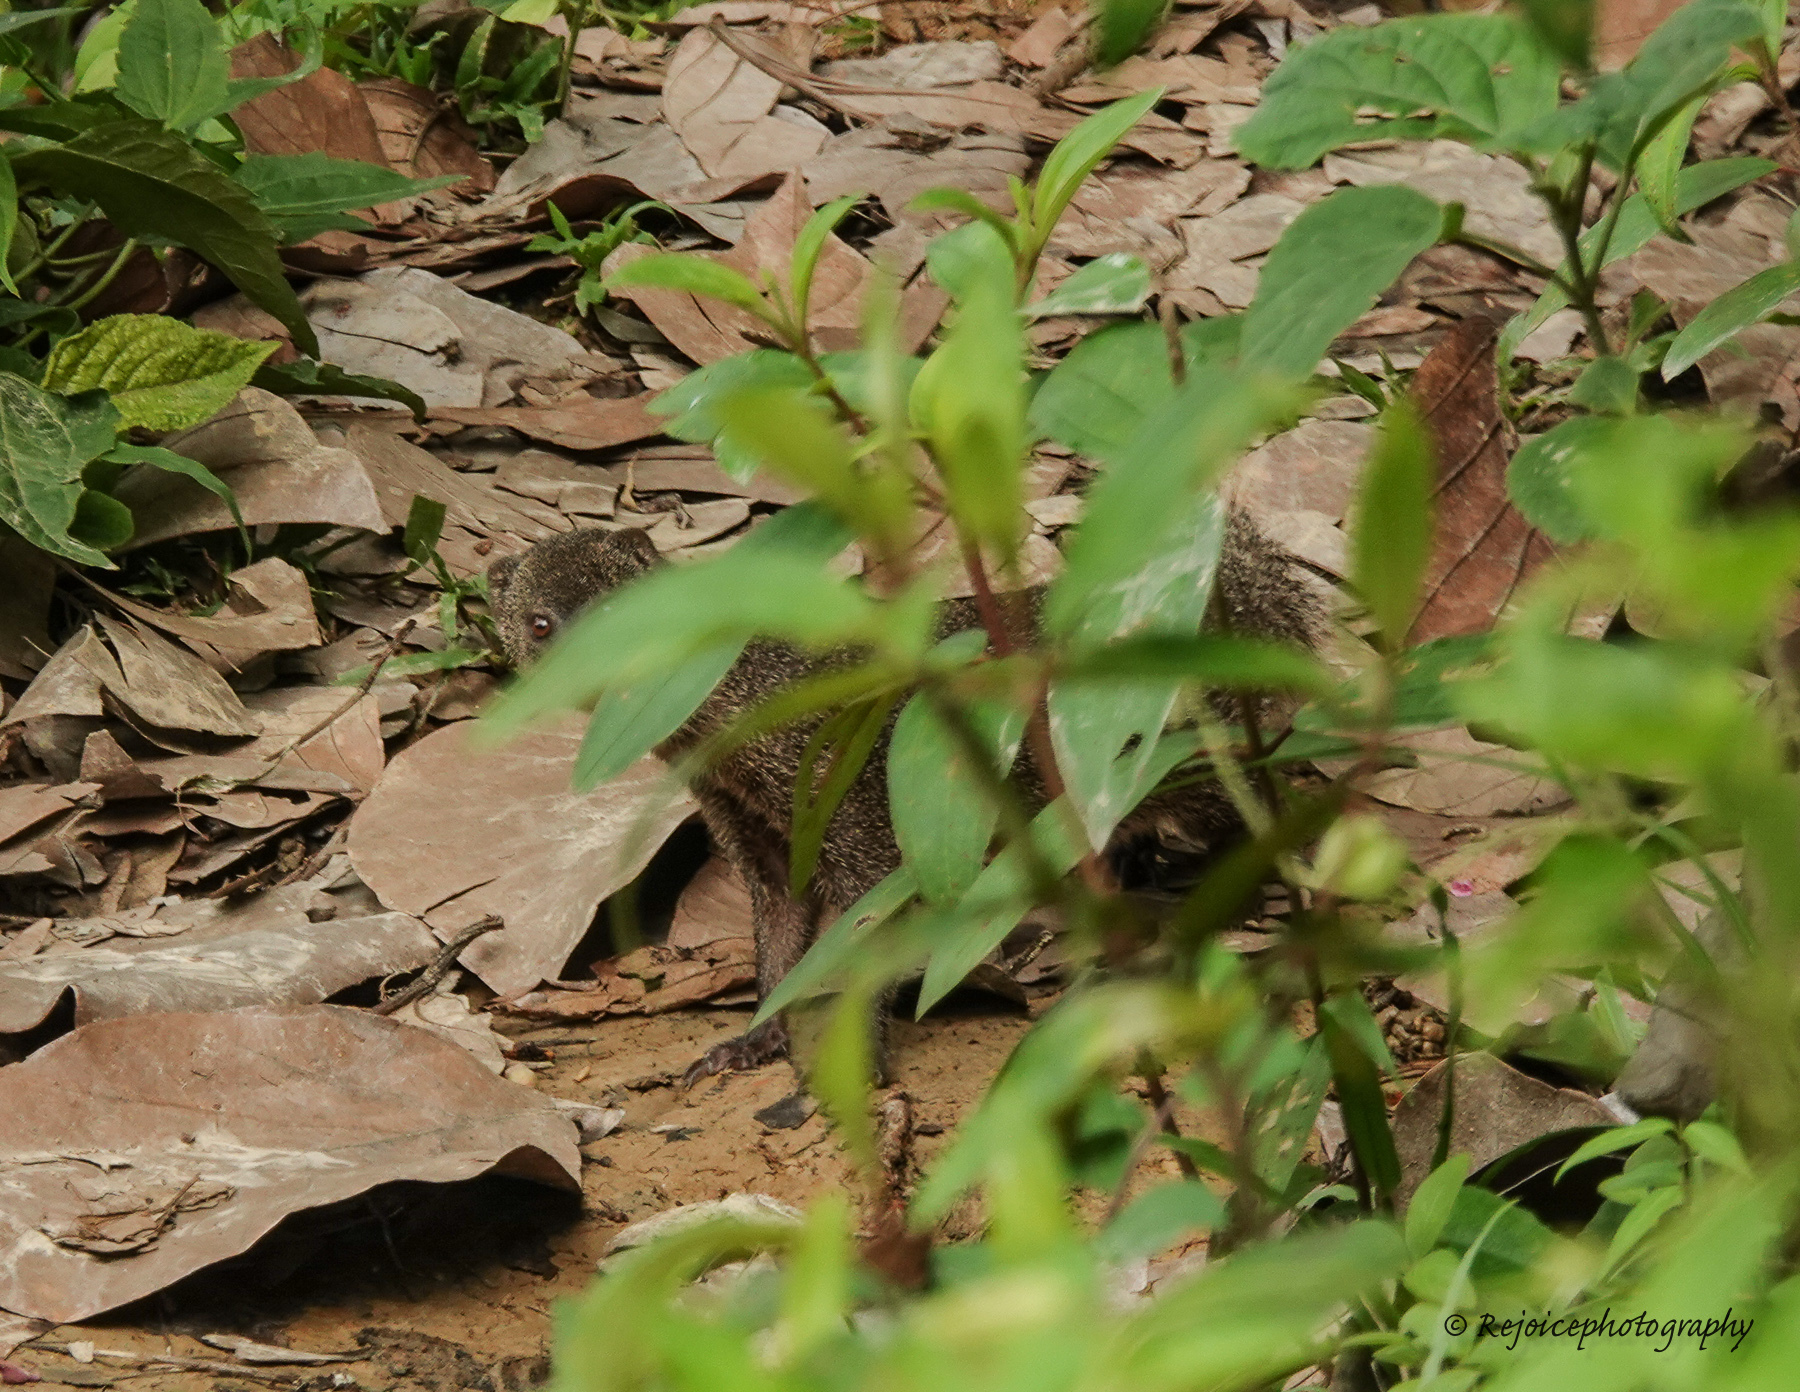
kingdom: Animalia
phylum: Chordata
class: Mammalia
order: Carnivora
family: Herpestidae
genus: Herpestes
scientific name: Herpestes javanicus
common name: Small asian mongoose
